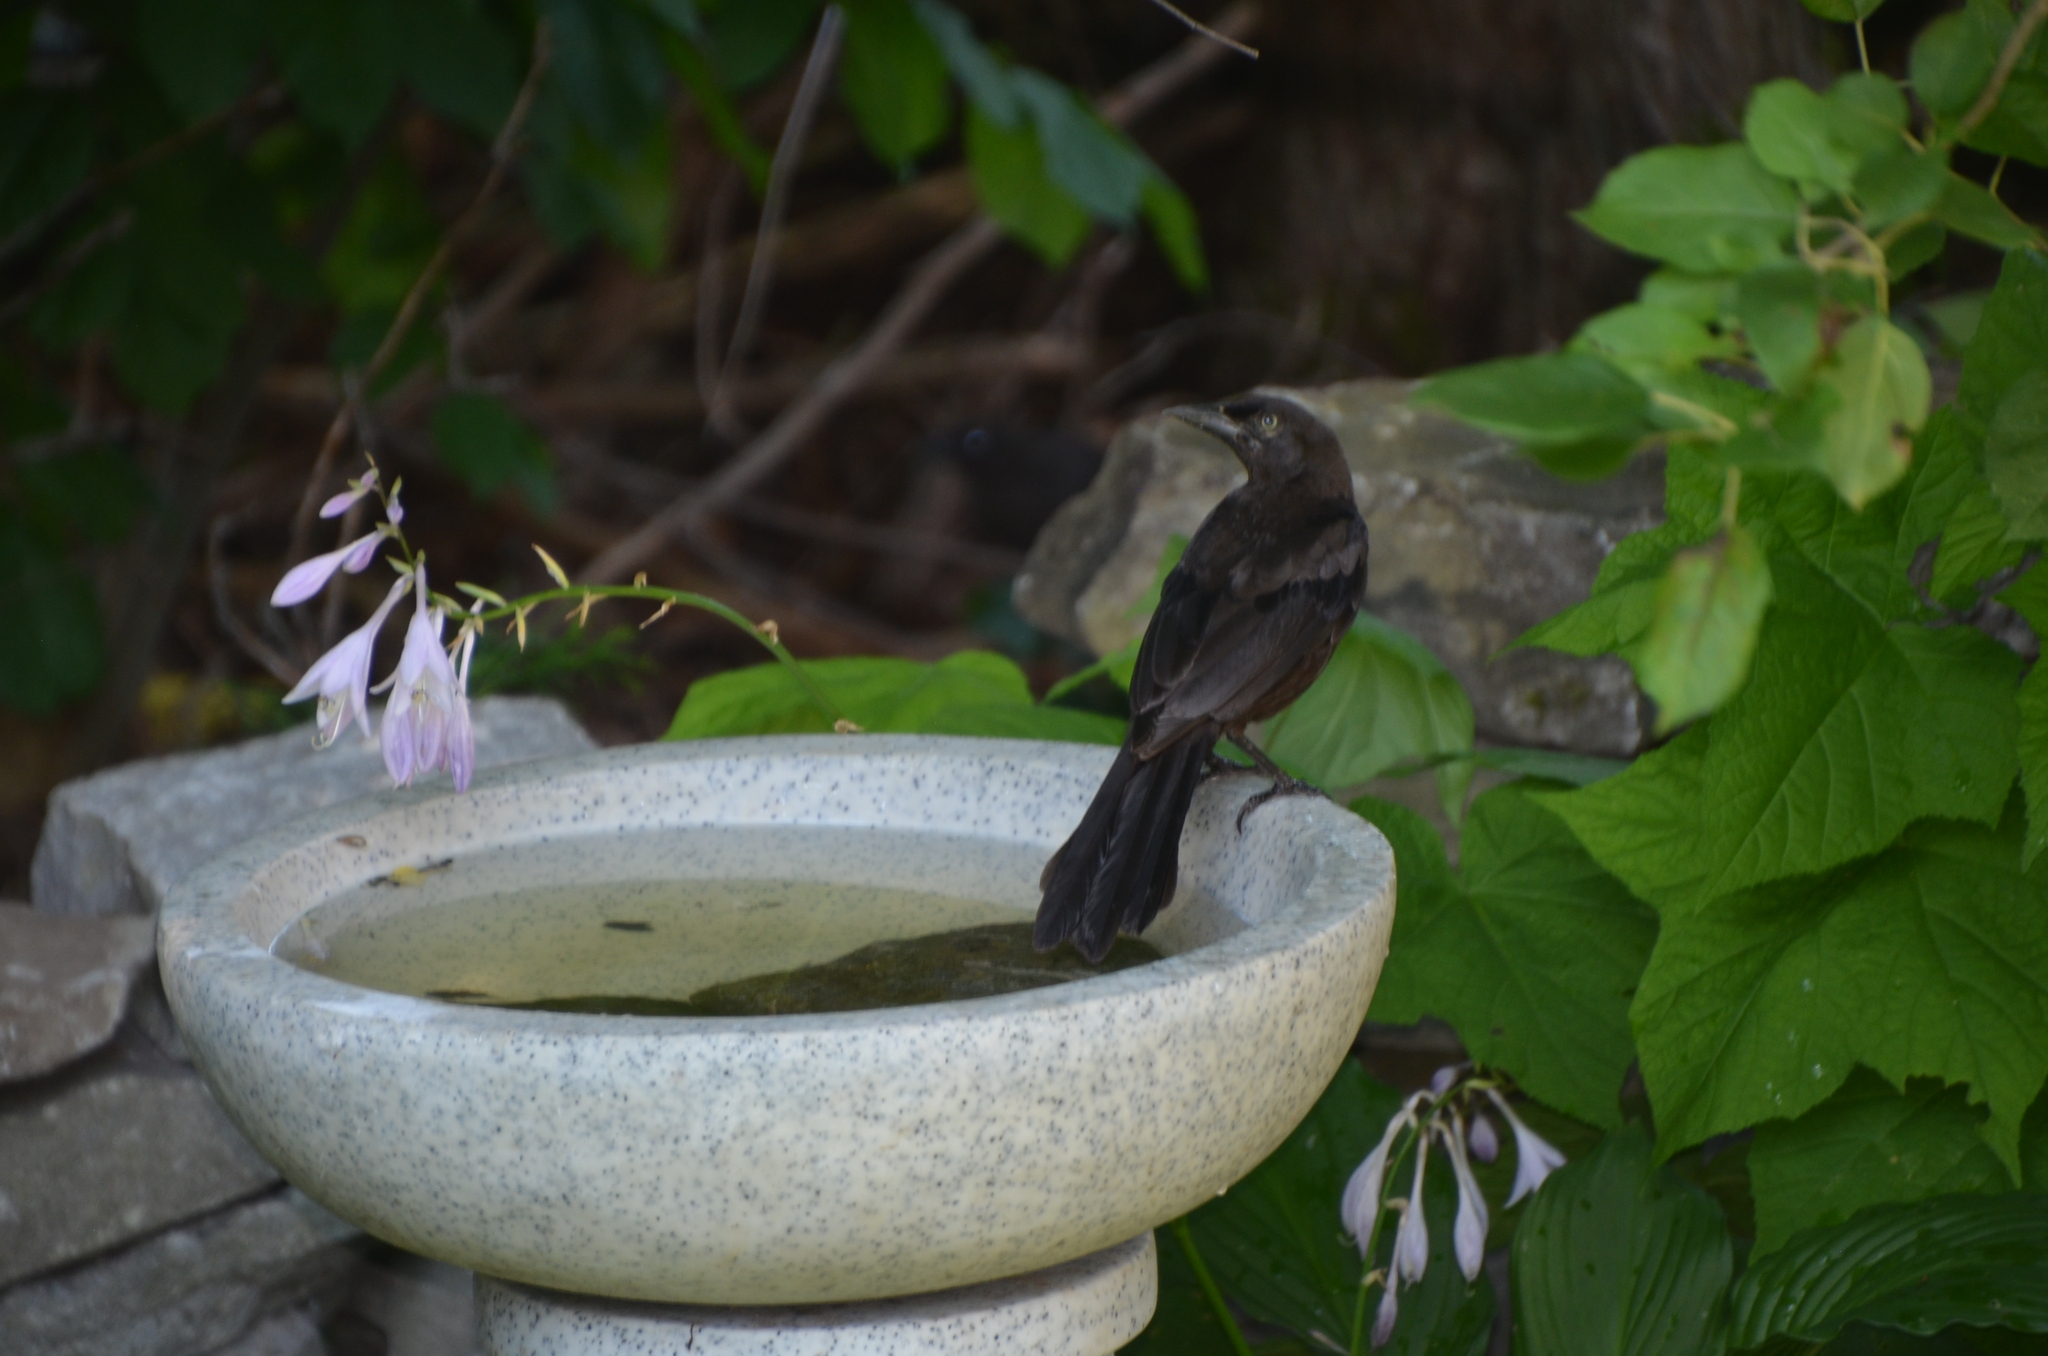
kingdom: Animalia
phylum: Chordata
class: Aves
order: Passeriformes
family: Icteridae
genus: Quiscalus
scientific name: Quiscalus quiscula
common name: Common grackle
